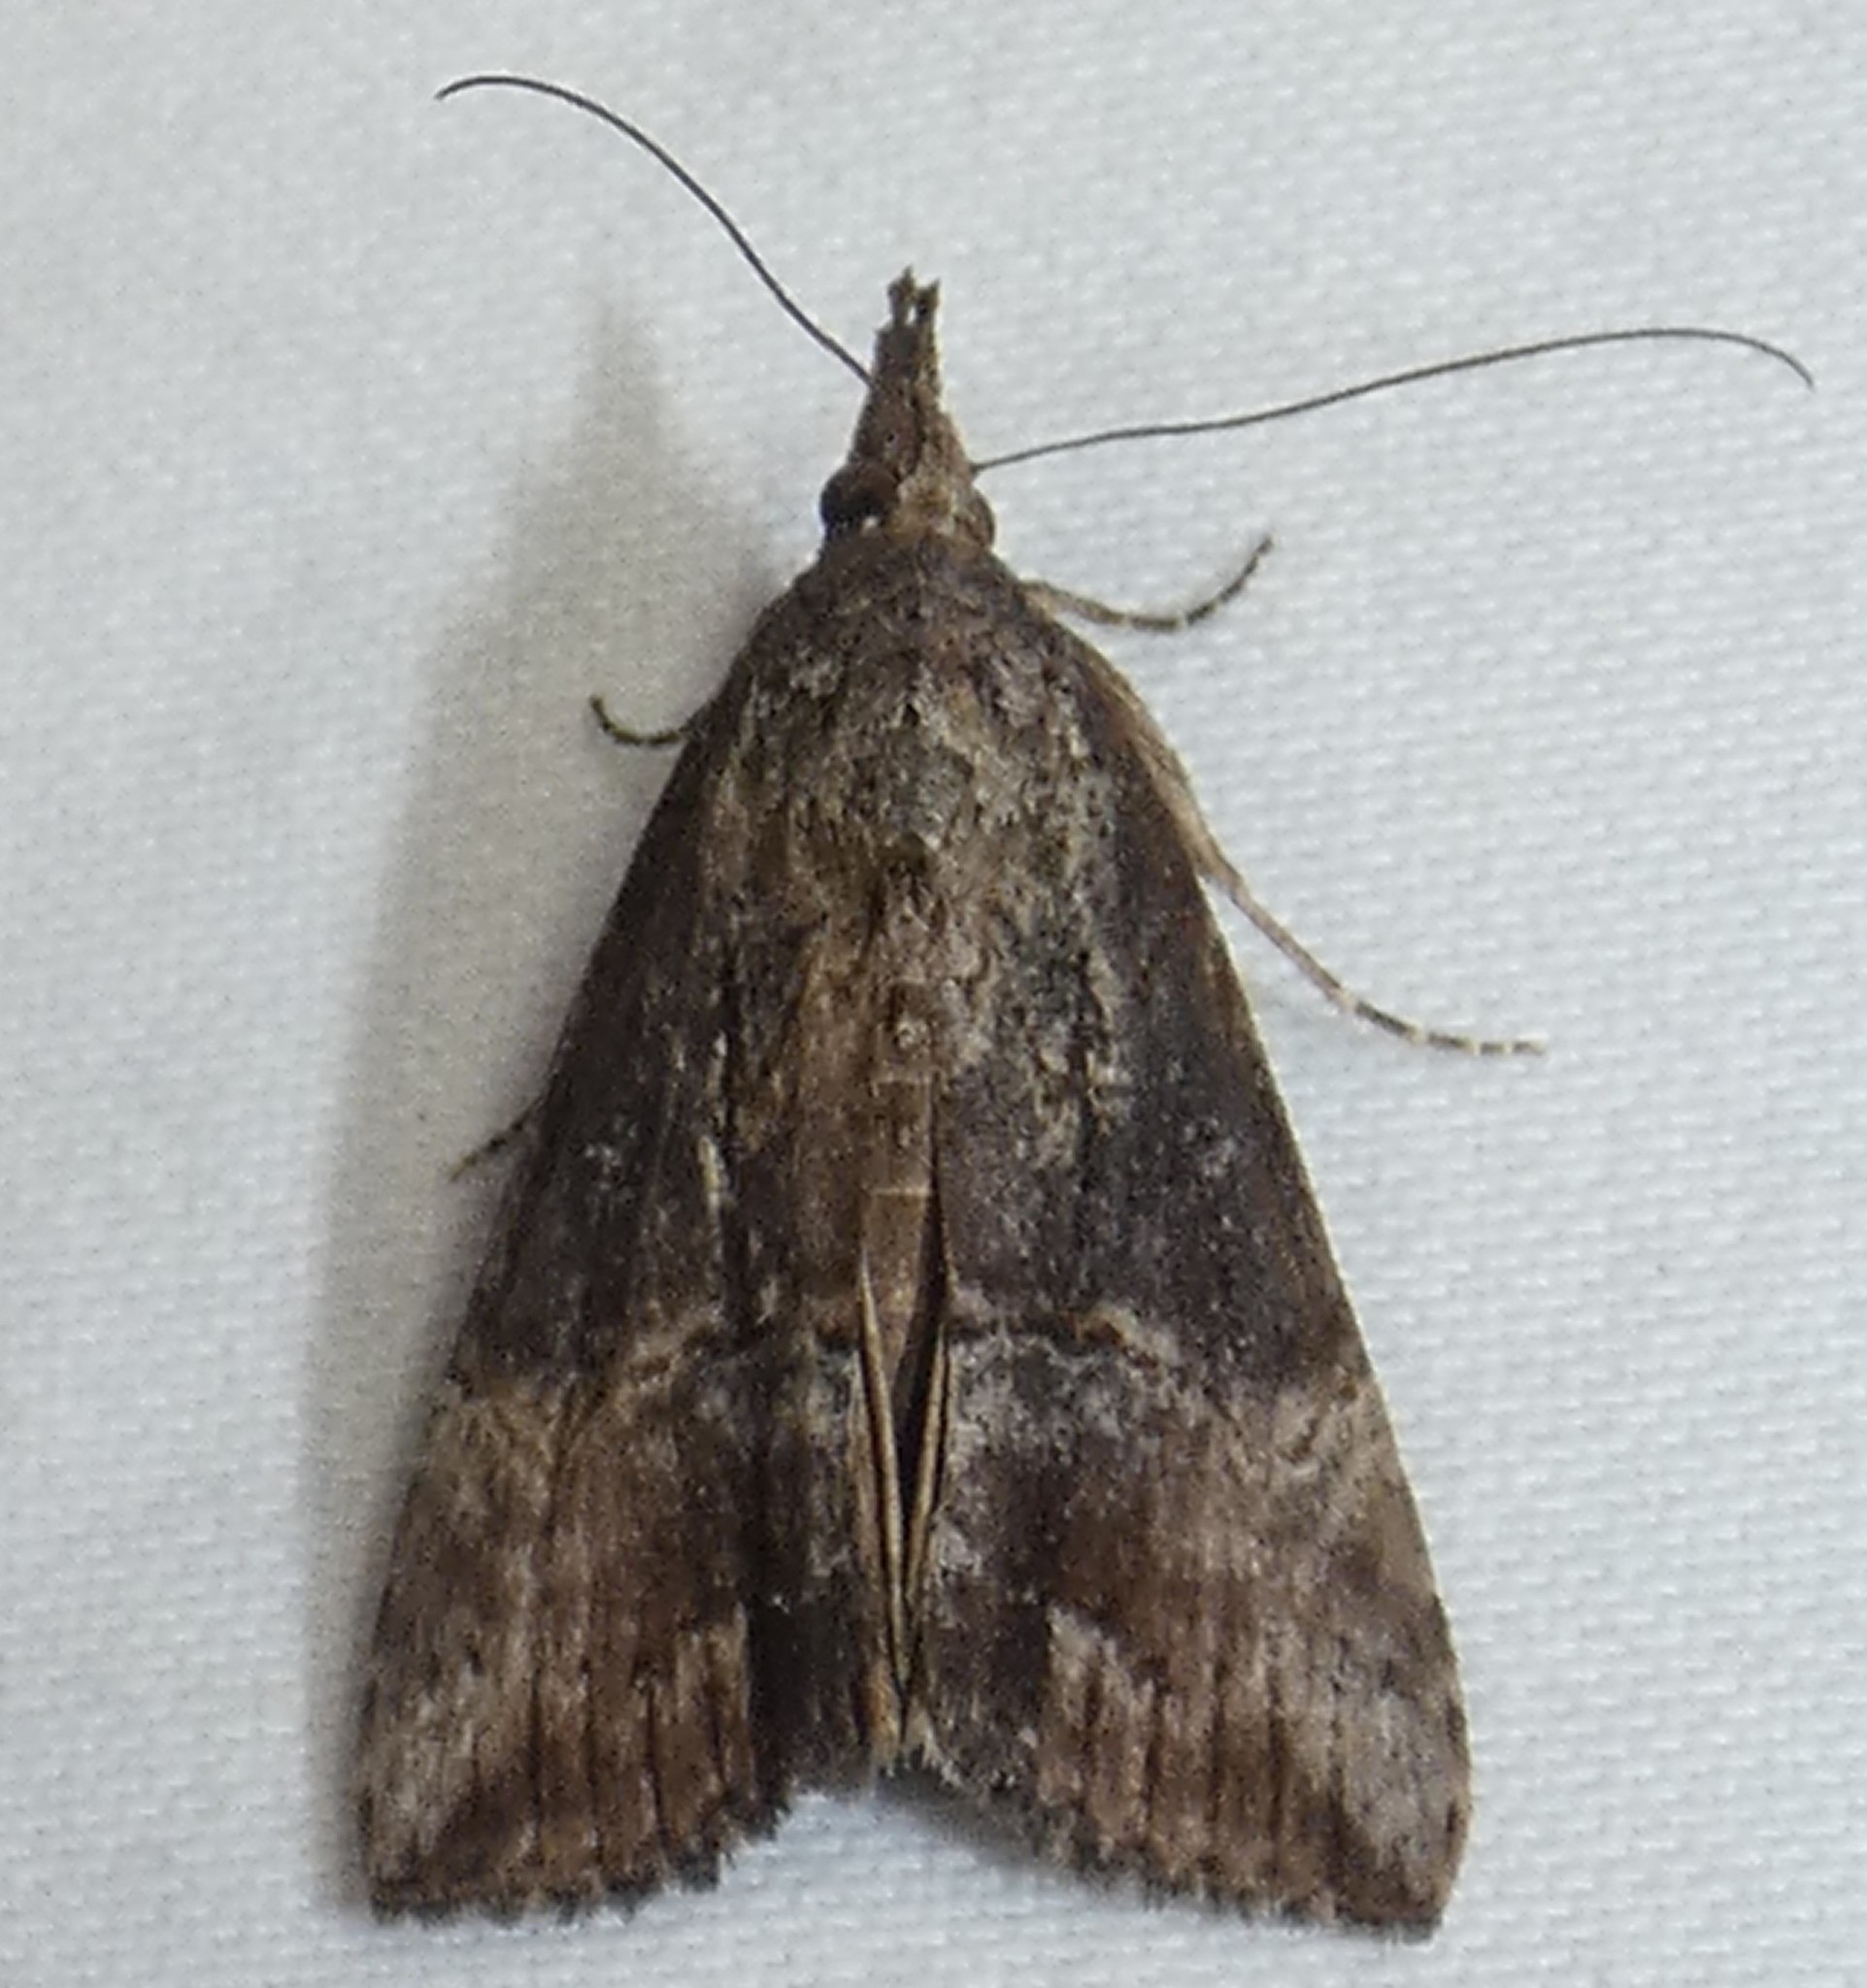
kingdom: Animalia
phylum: Arthropoda
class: Insecta
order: Lepidoptera
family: Erebidae
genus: Hypena
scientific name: Hypena scabra
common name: Green cloverworm
